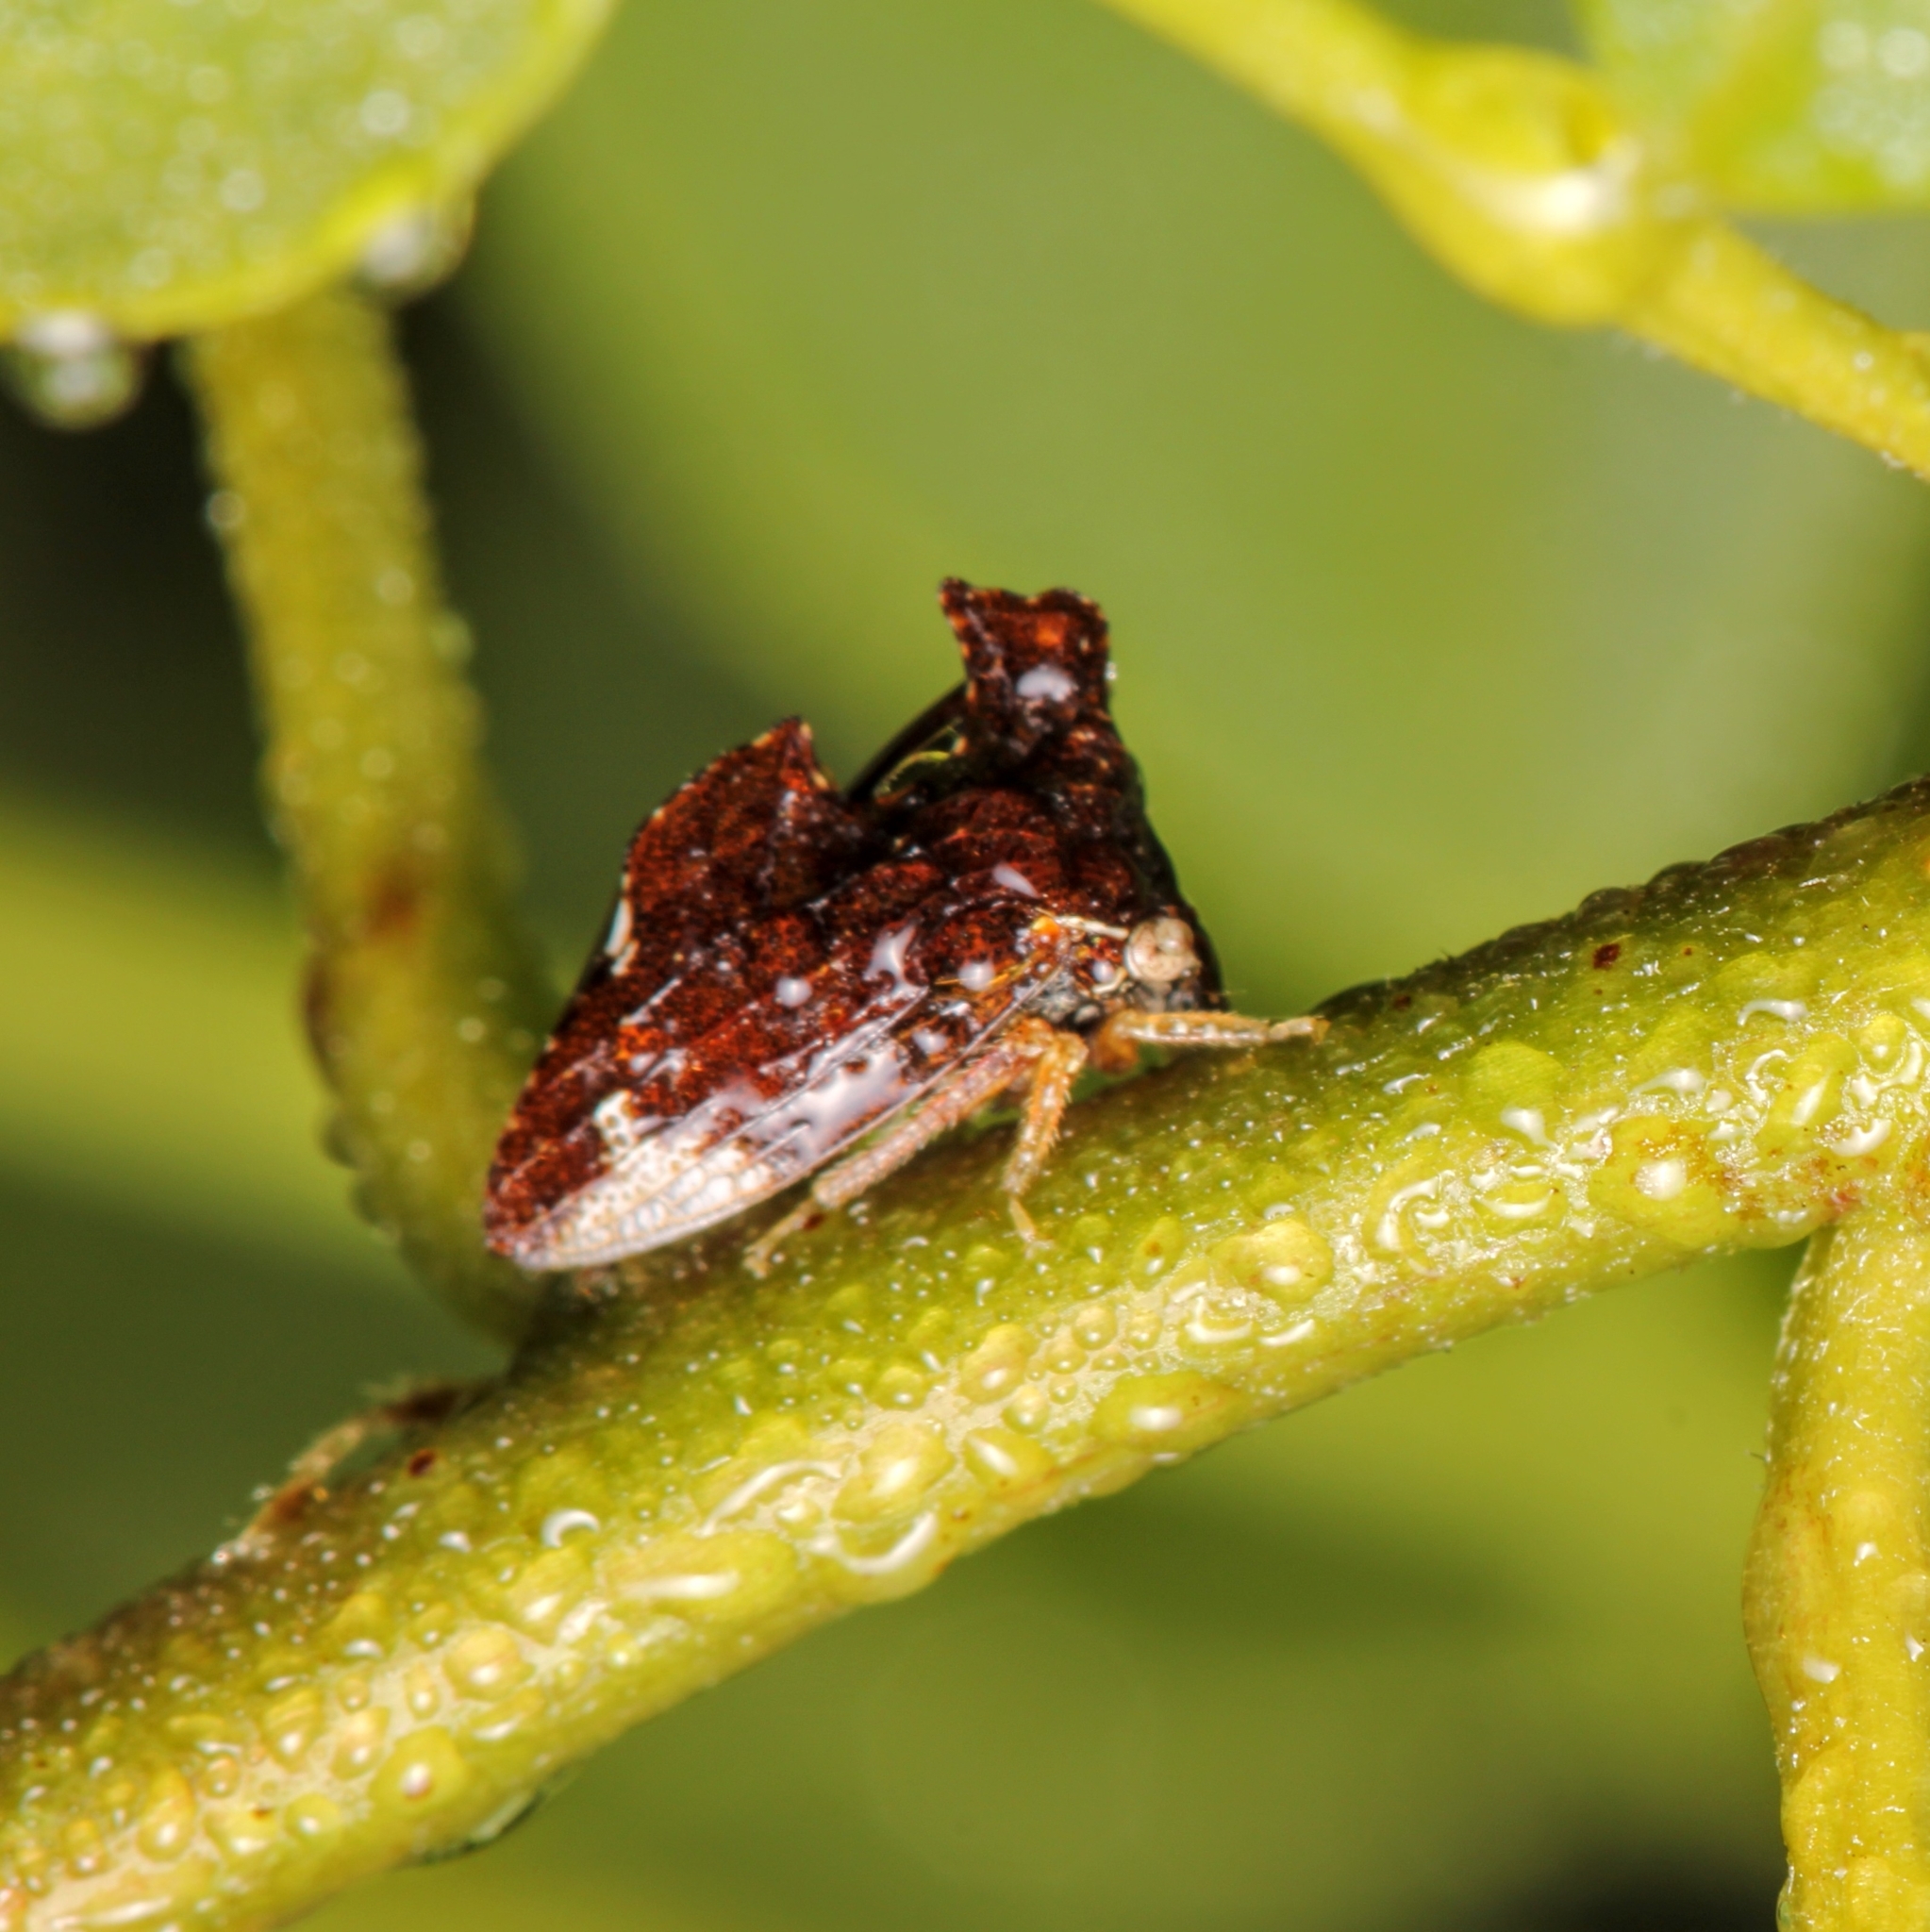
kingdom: Animalia
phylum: Arthropoda
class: Insecta
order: Hemiptera
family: Membracidae
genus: Entylia
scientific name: Entylia carinata
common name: Keeled treehopper
